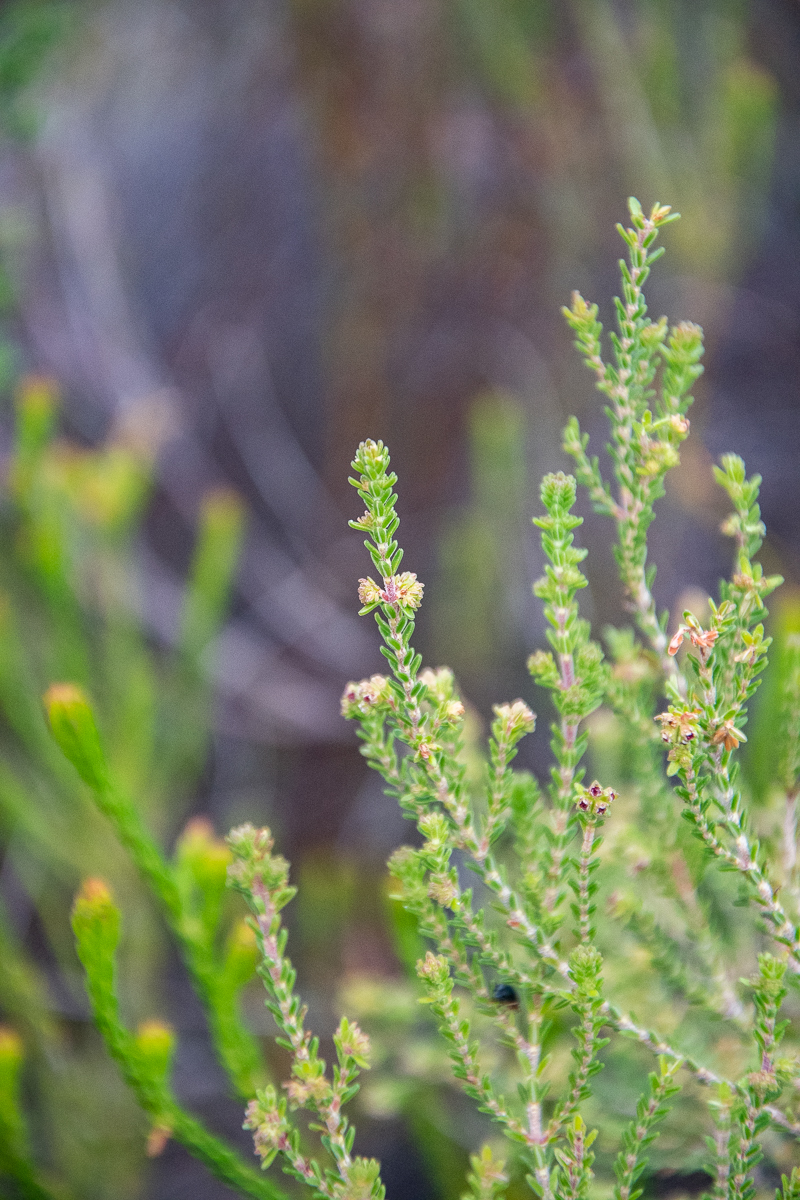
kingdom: Plantae
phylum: Tracheophyta
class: Magnoliopsida
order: Ericales
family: Ericaceae
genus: Erica
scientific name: Erica serrata
